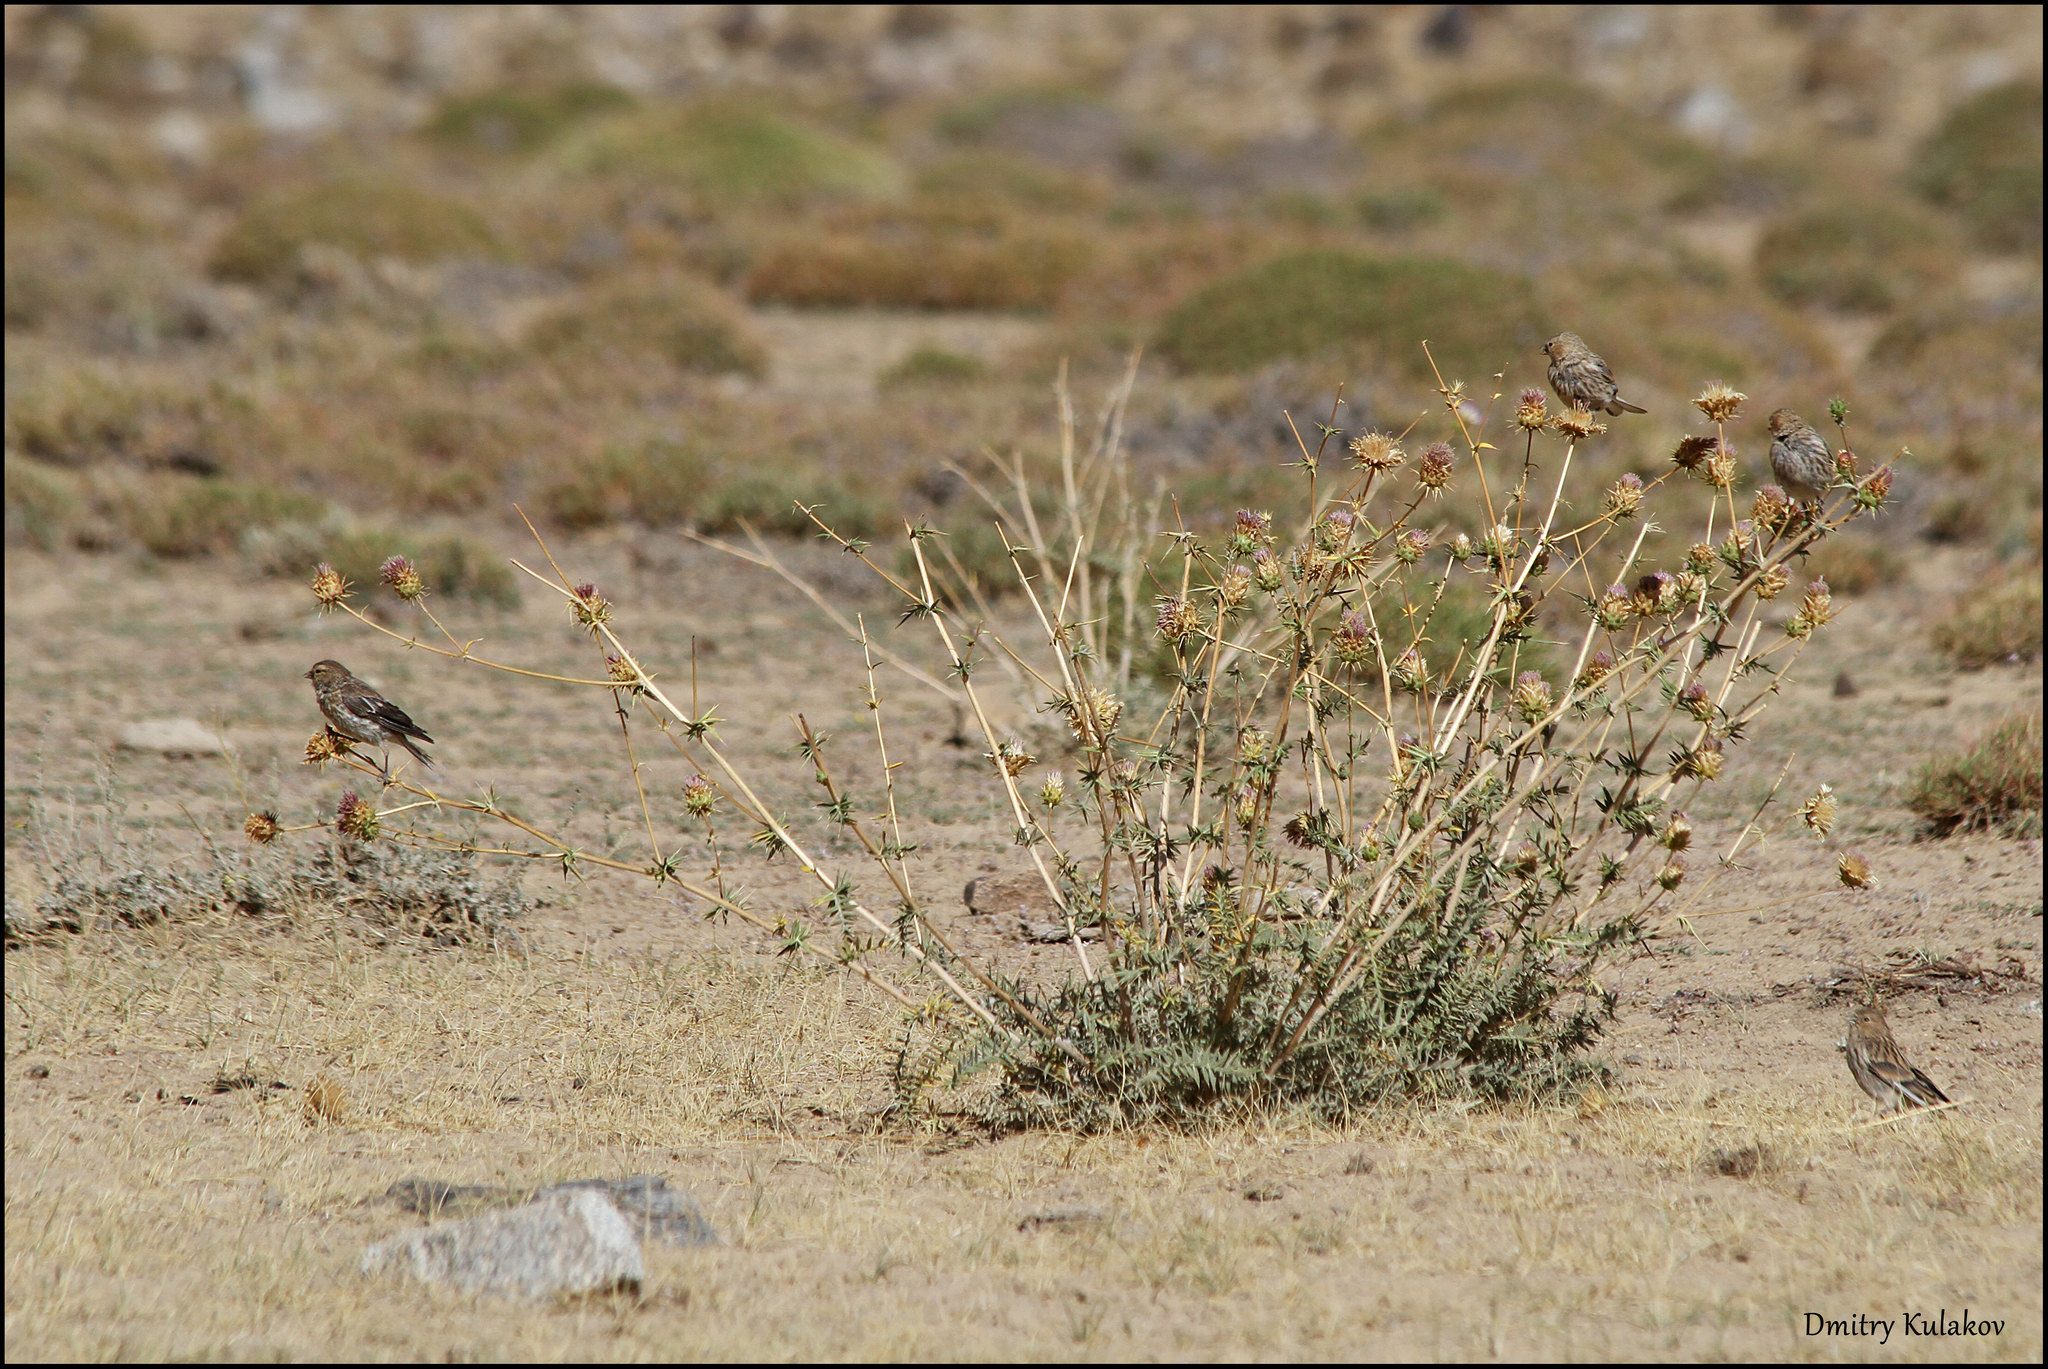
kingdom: Animalia
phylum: Chordata
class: Aves
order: Passeriformes
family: Fringillidae
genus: Linaria
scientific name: Linaria flavirostris
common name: Twite
